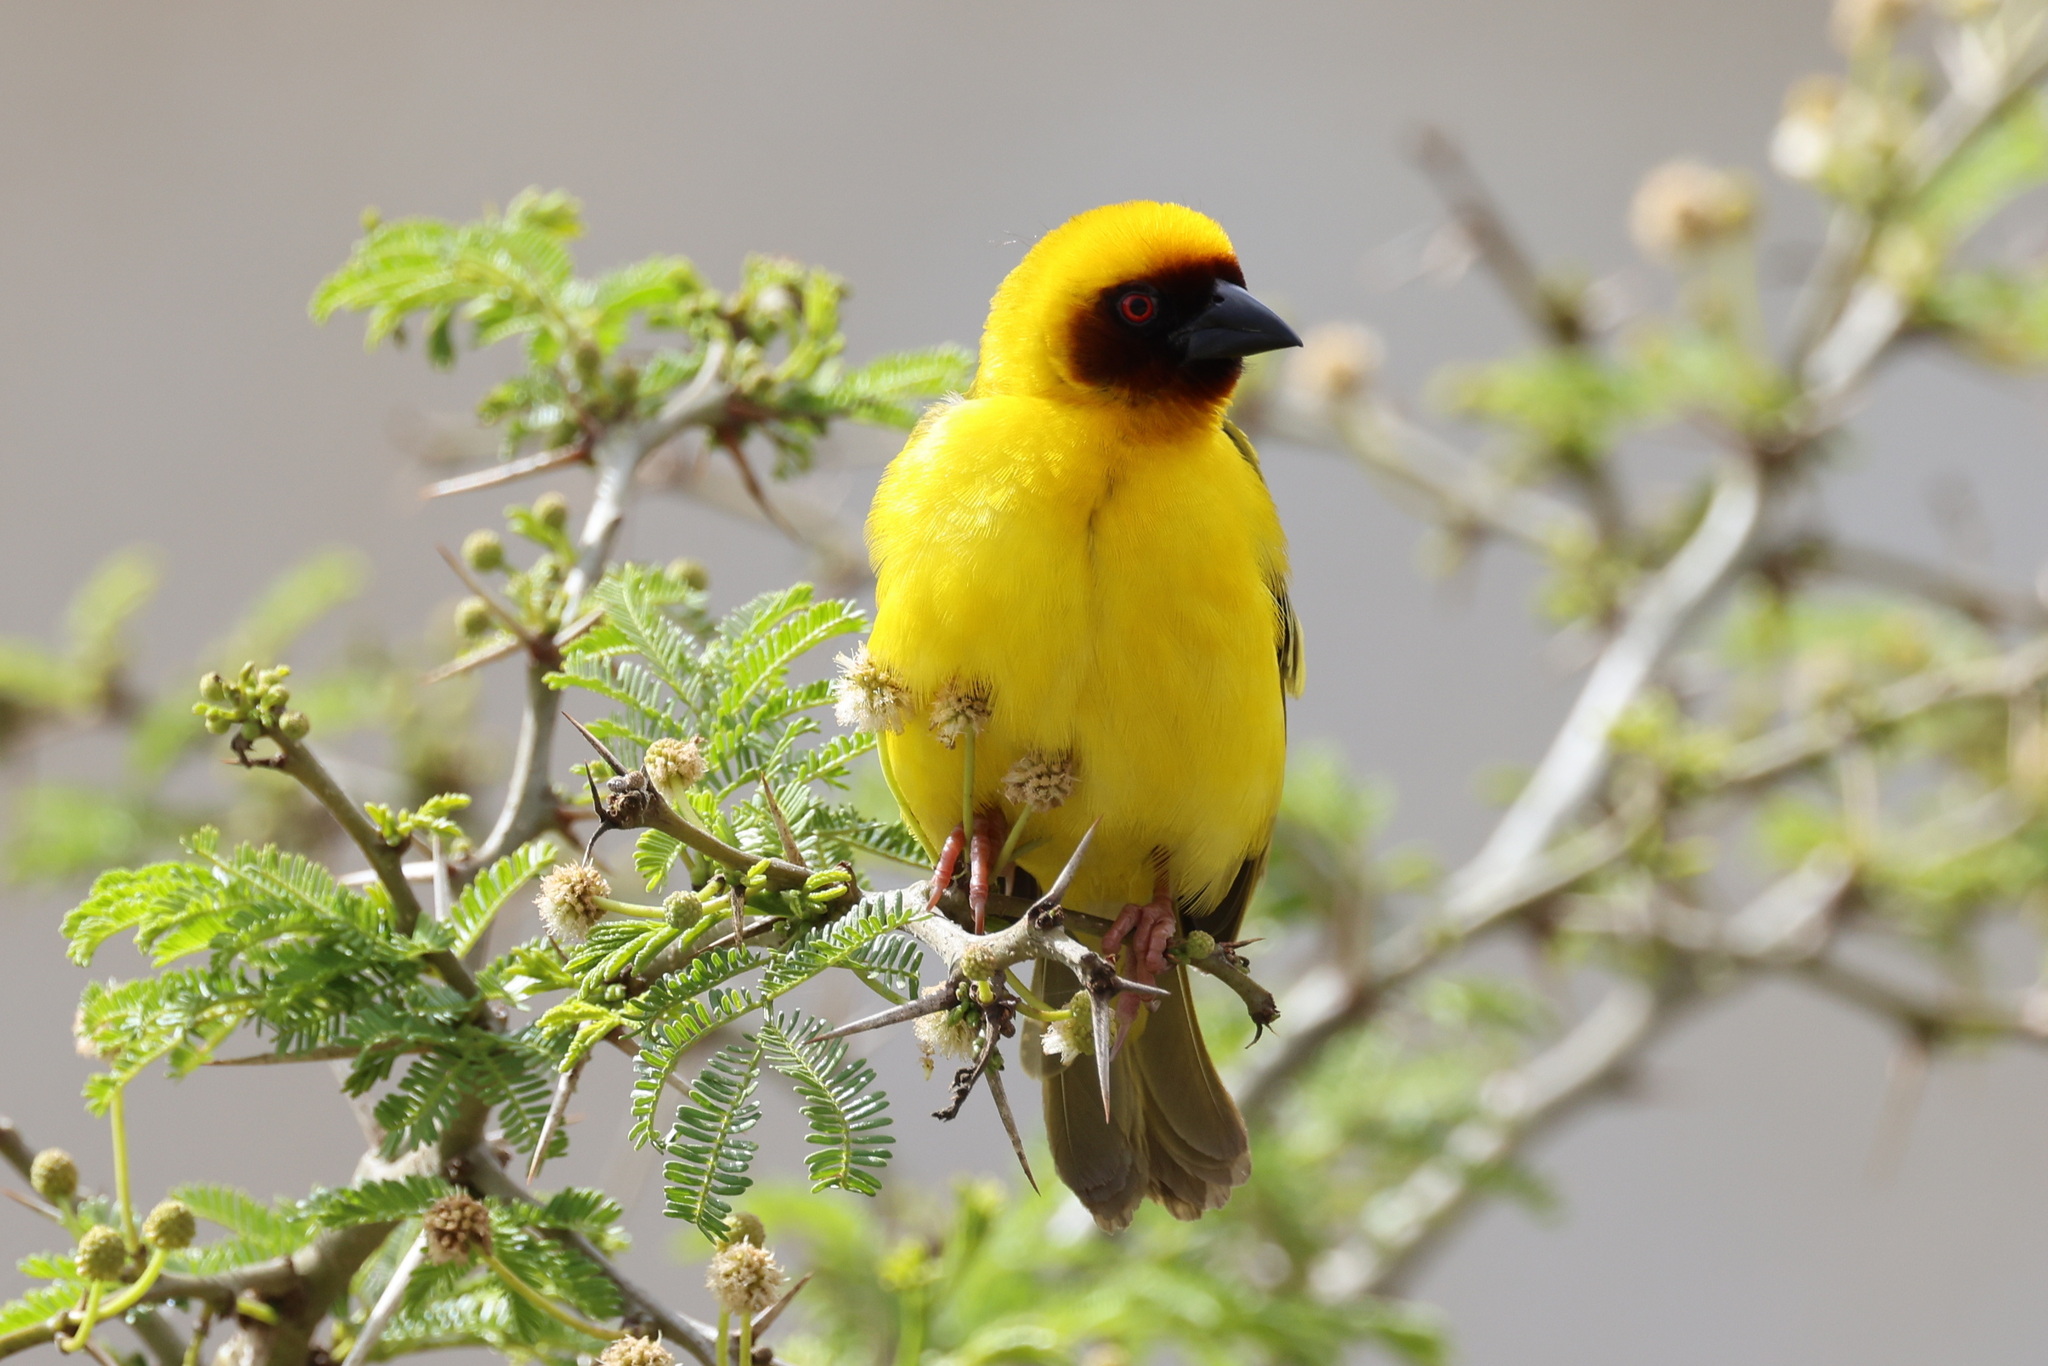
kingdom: Animalia
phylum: Chordata
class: Aves
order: Passeriformes
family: Ploceidae
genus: Ploceus
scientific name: Ploceus galbula
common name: Rüppell's weaver
